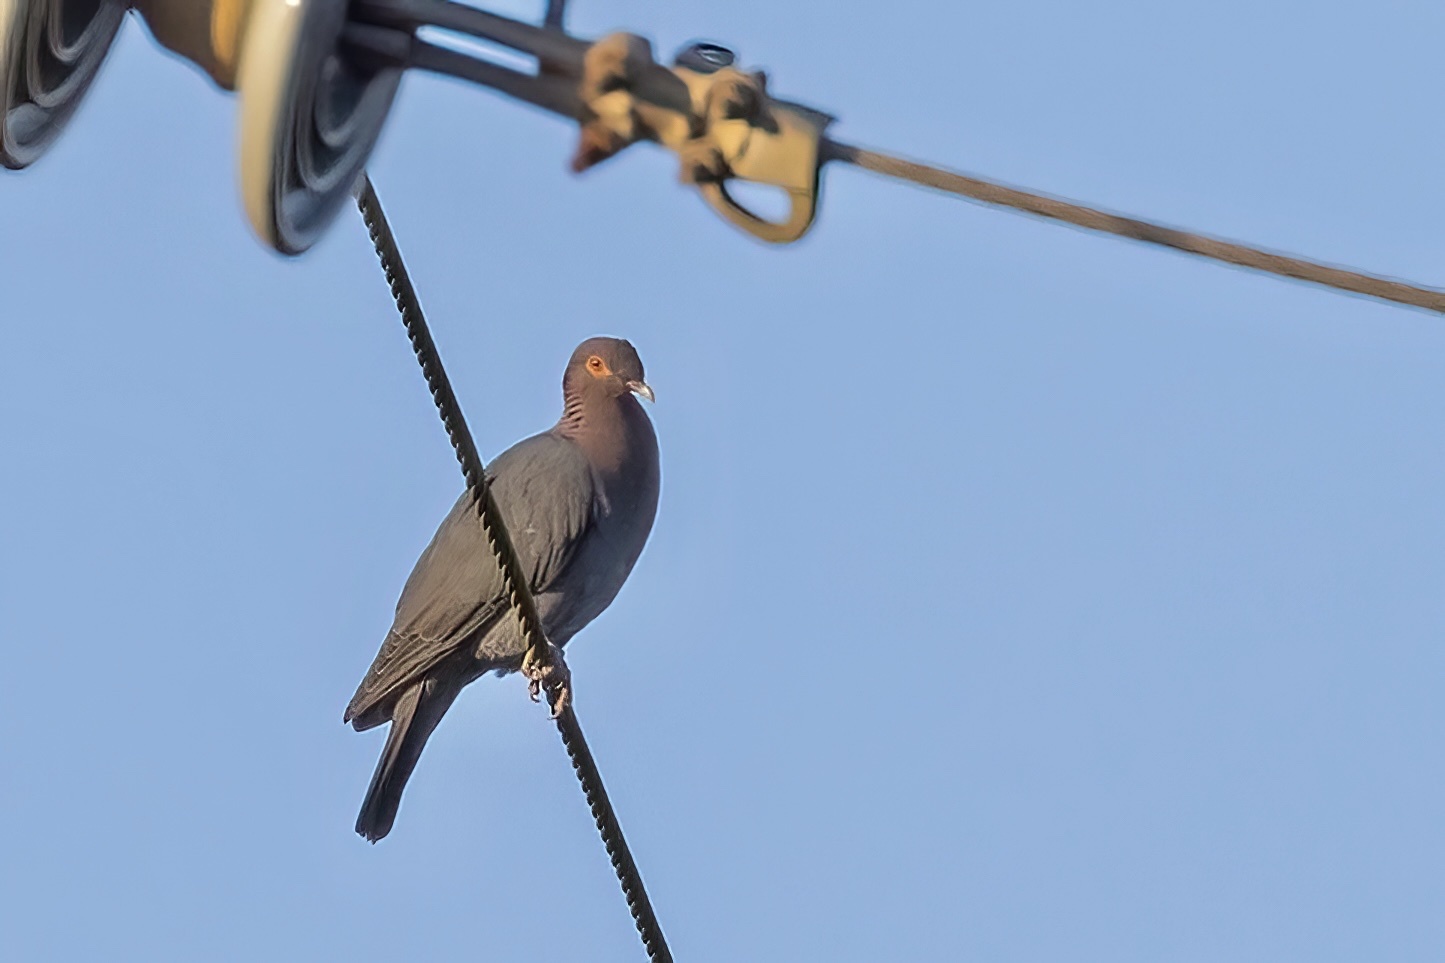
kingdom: Animalia
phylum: Chordata
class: Aves
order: Columbiformes
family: Columbidae
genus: Patagioenas
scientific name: Patagioenas squamosa
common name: Scaly-naped pigeon
